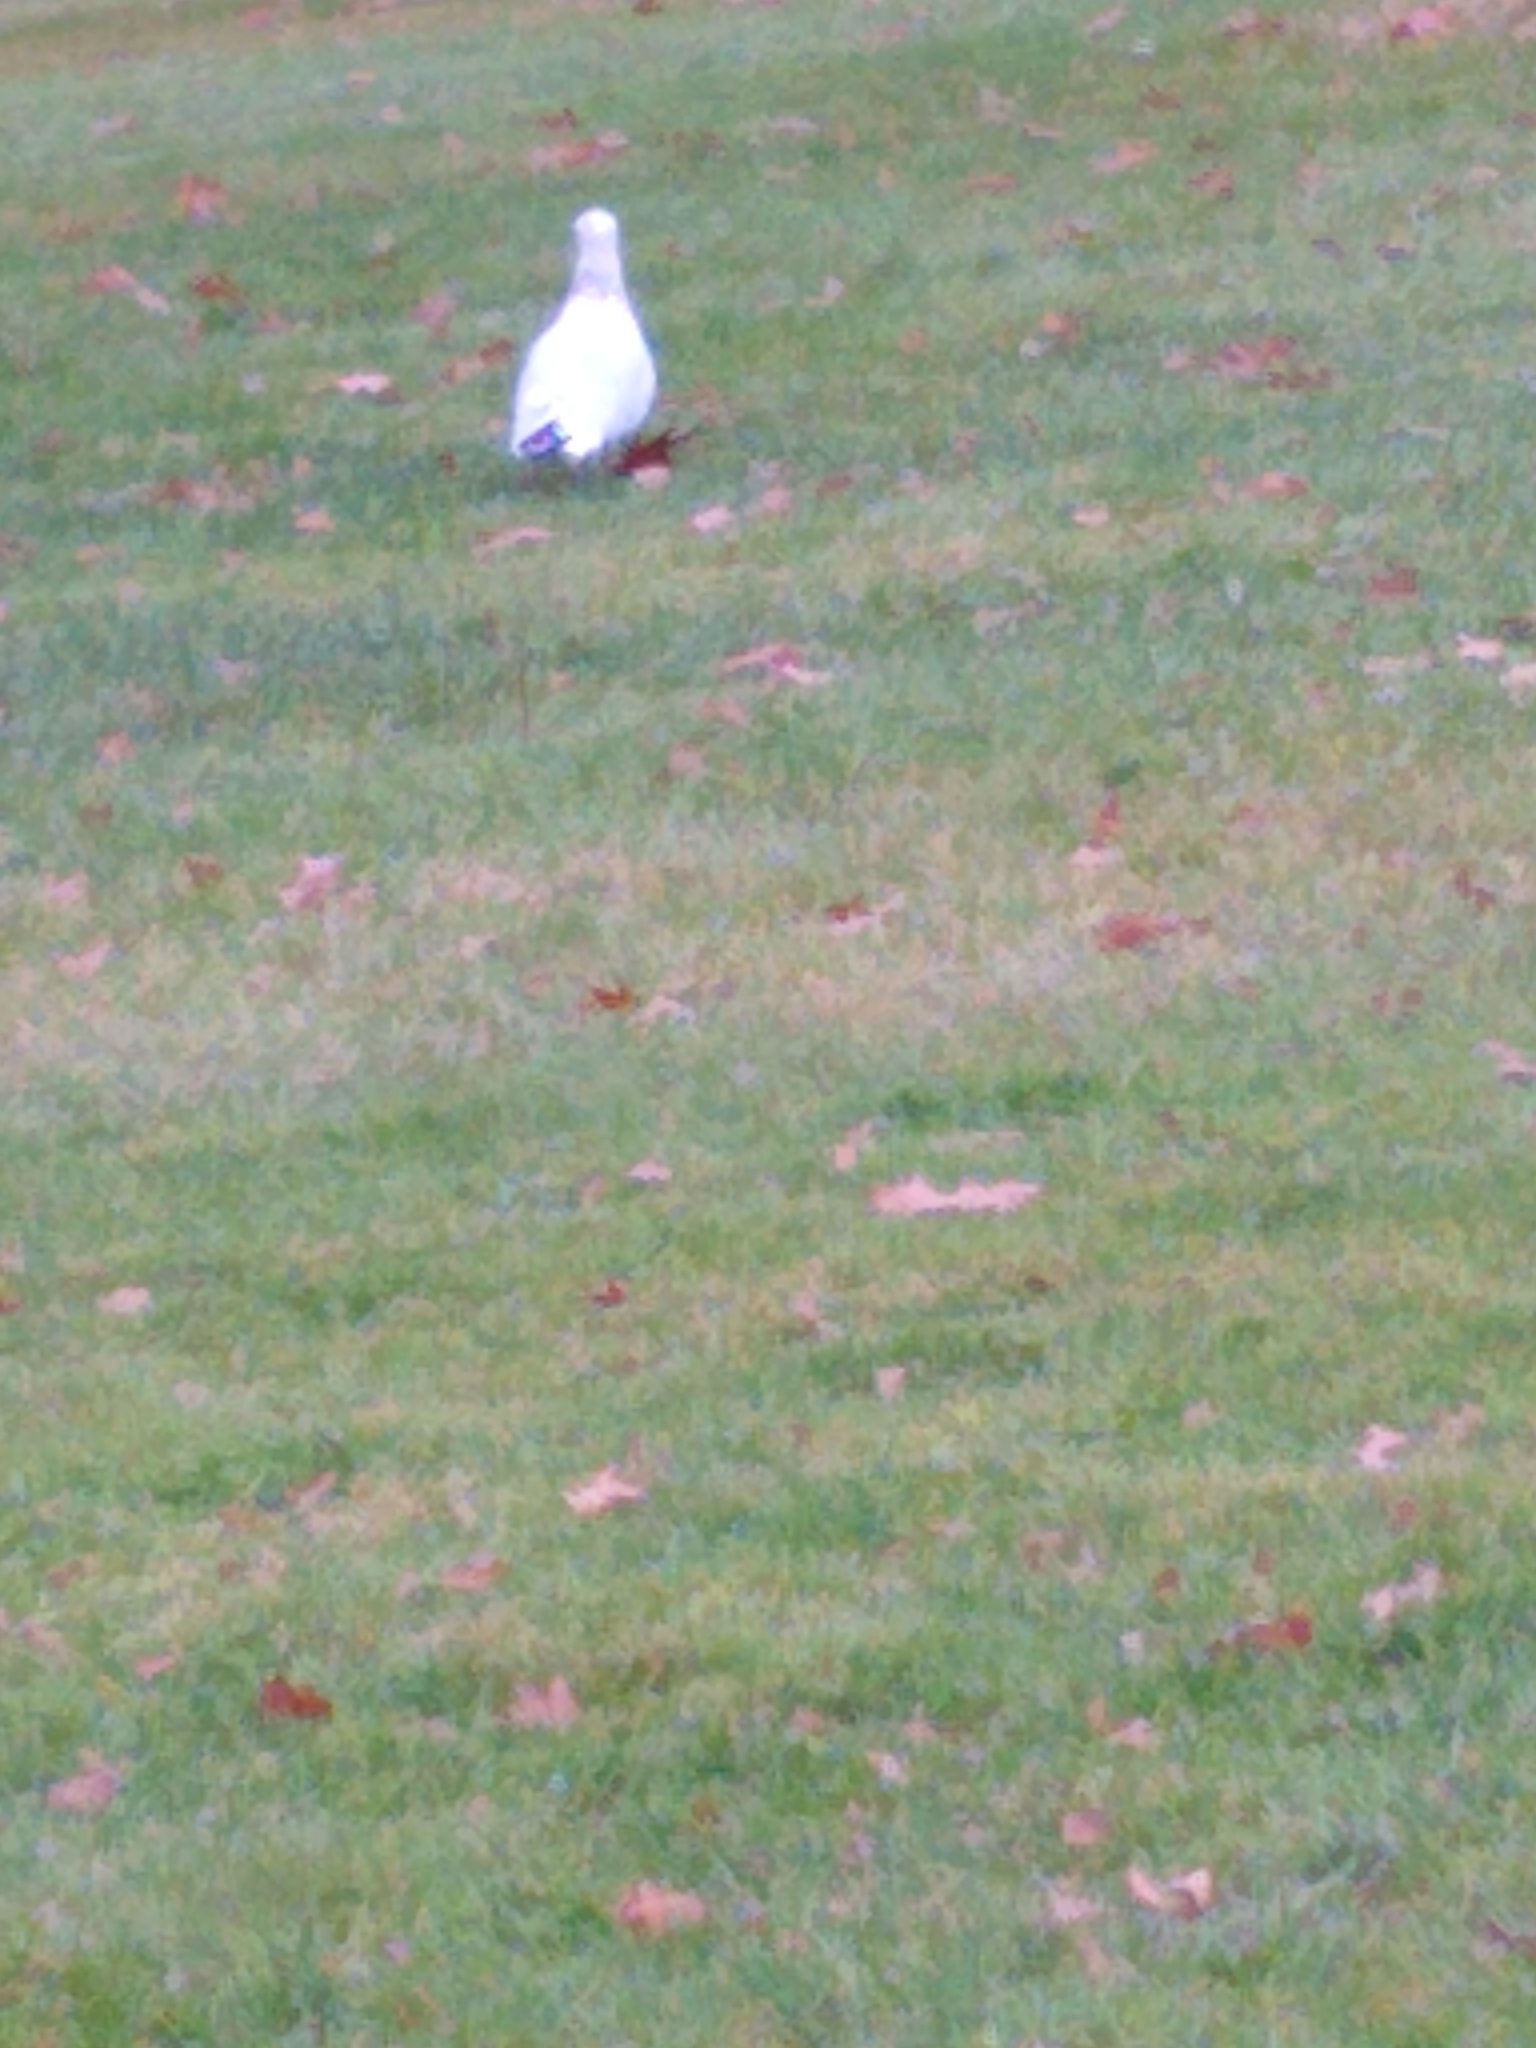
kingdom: Animalia
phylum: Chordata
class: Aves
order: Charadriiformes
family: Laridae
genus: Larus
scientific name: Larus delawarensis
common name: Ring-billed gull
